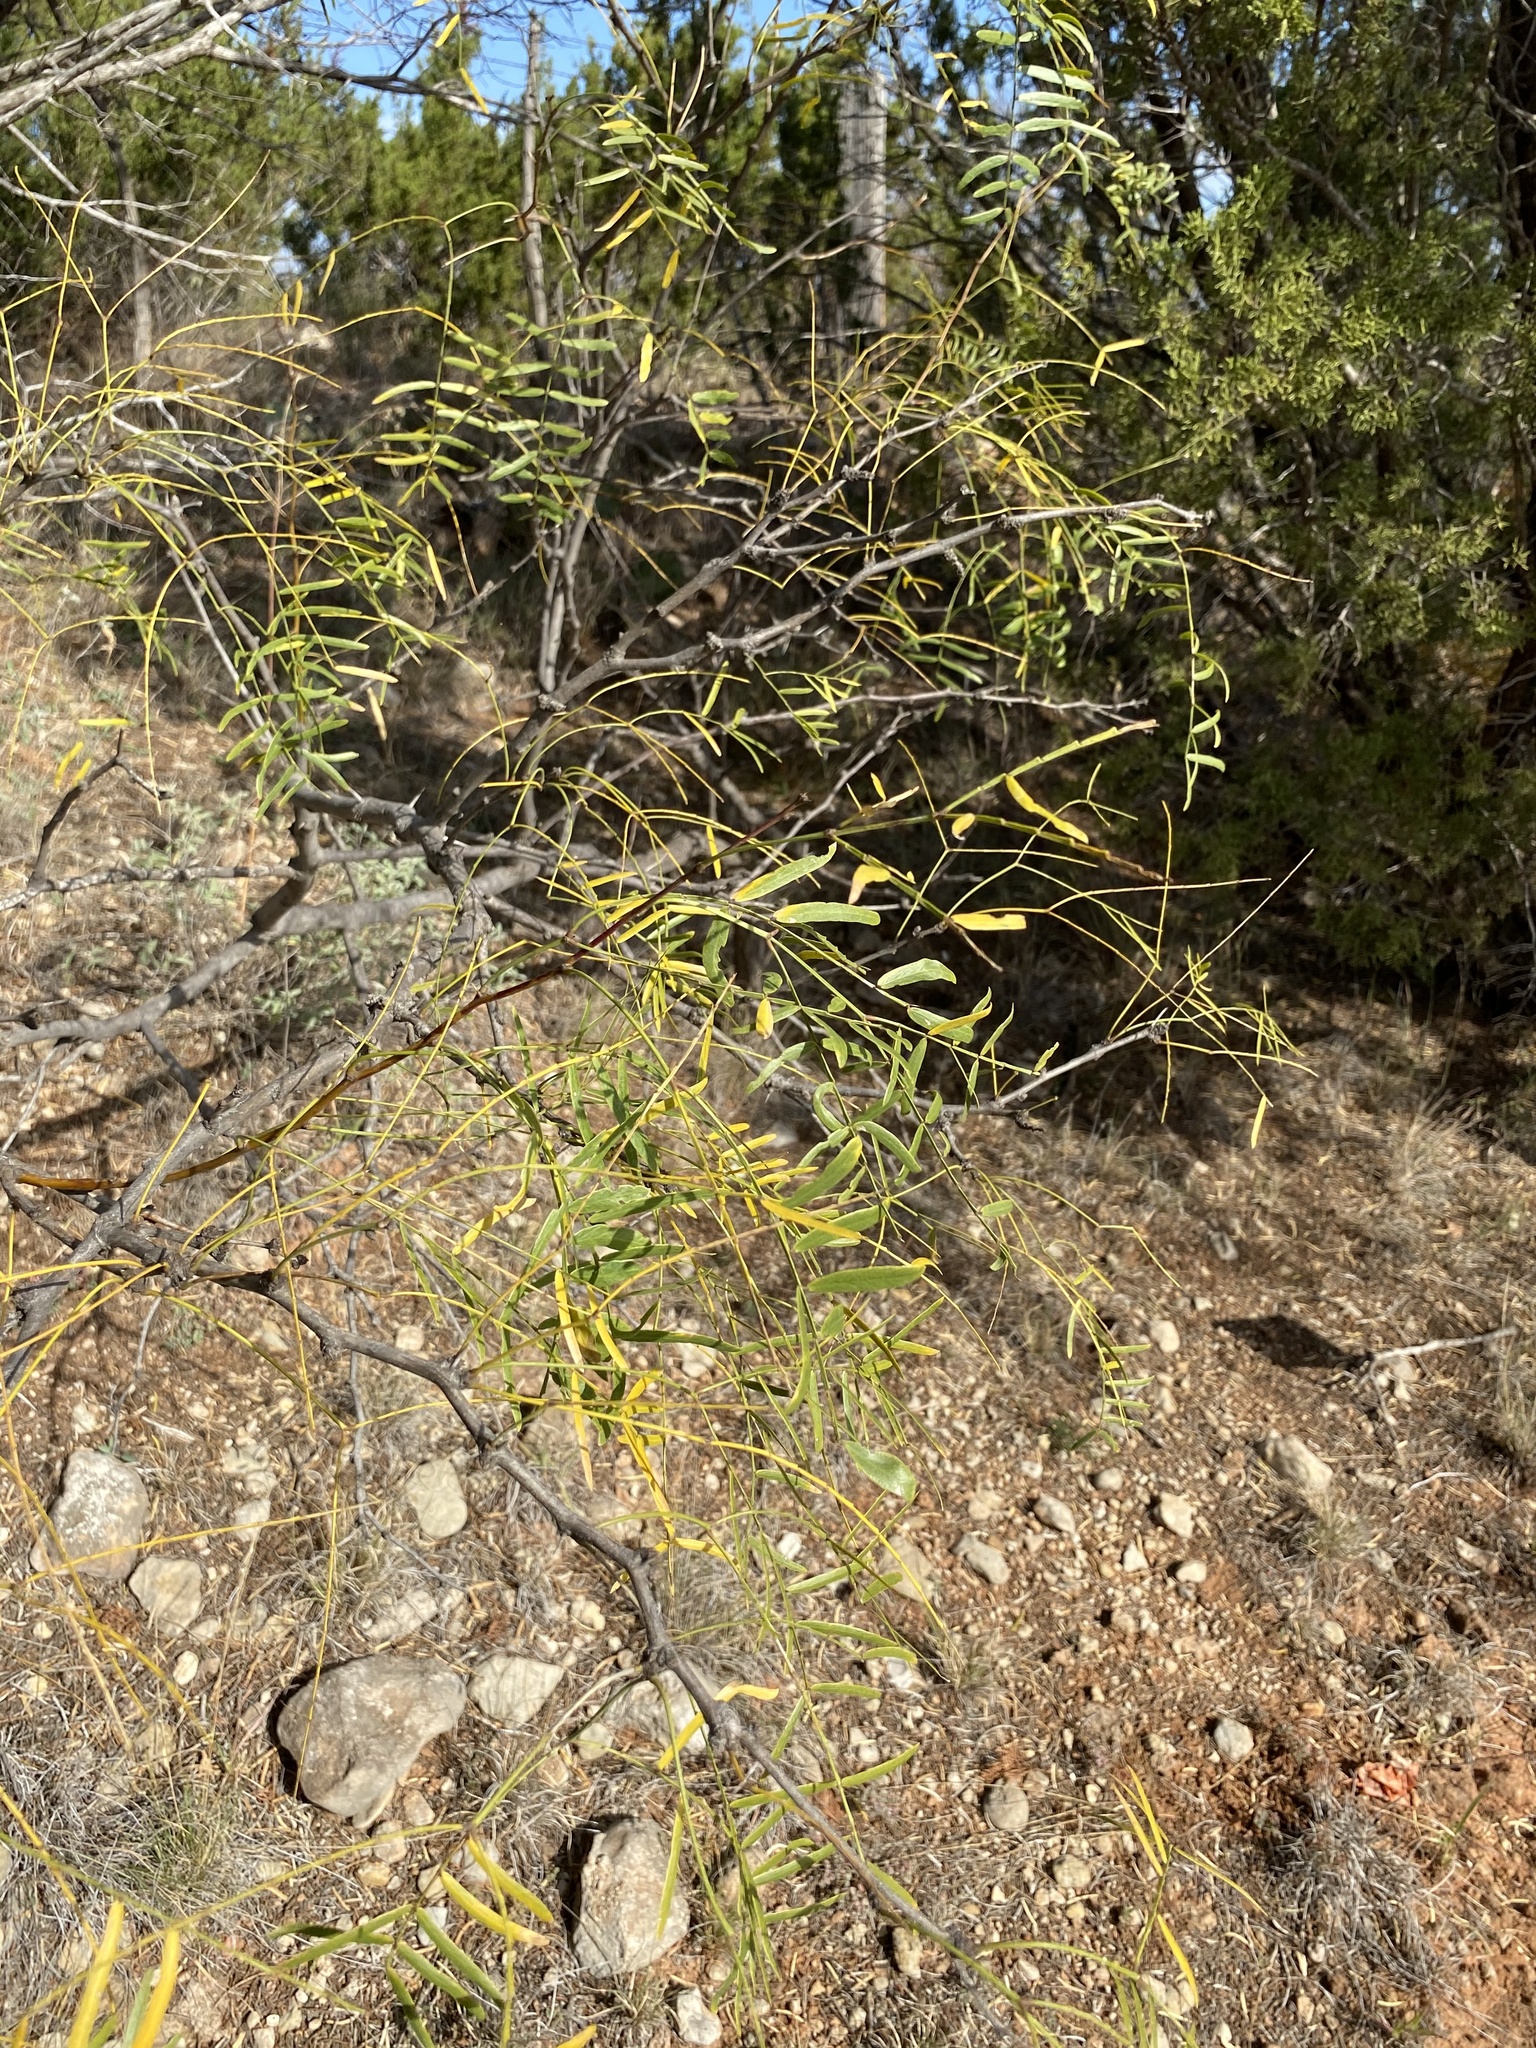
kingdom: Plantae
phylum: Tracheophyta
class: Magnoliopsida
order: Fabales
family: Fabaceae
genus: Prosopis
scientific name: Prosopis glandulosa
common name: Honey mesquite
